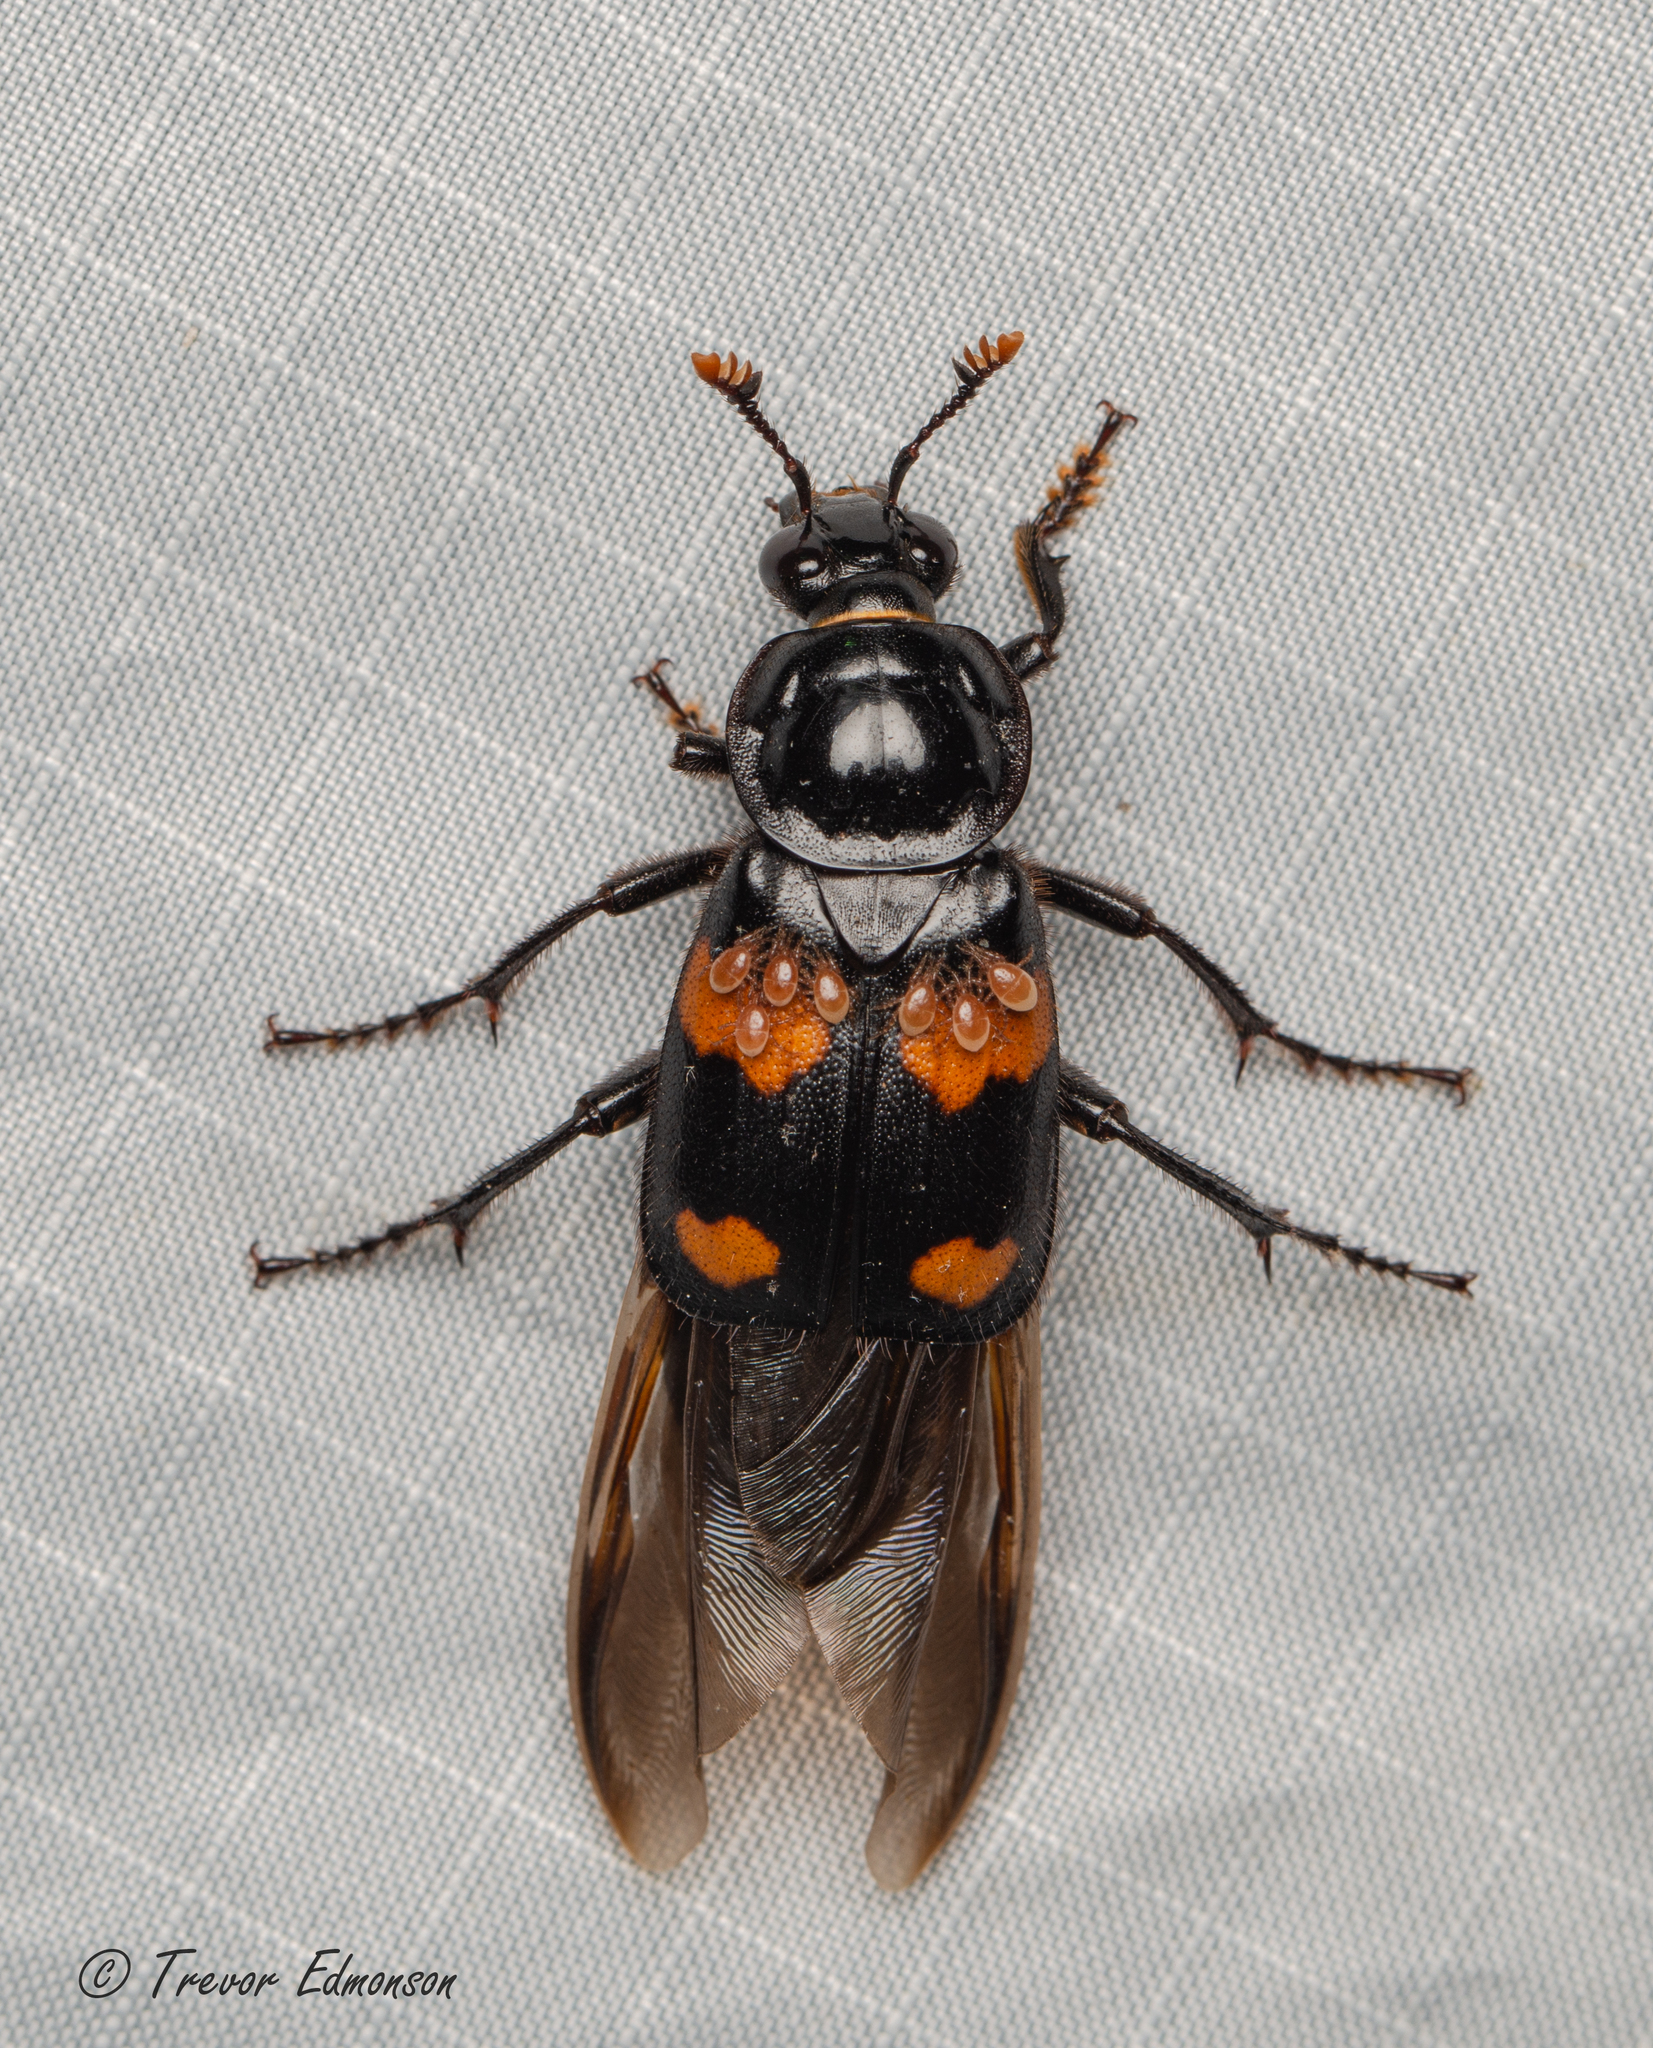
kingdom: Animalia
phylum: Arthropoda
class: Insecta
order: Coleoptera
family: Staphylinidae
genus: Nicrophorus
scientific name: Nicrophorus orbicollis
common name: Roundneck sexton beetle
